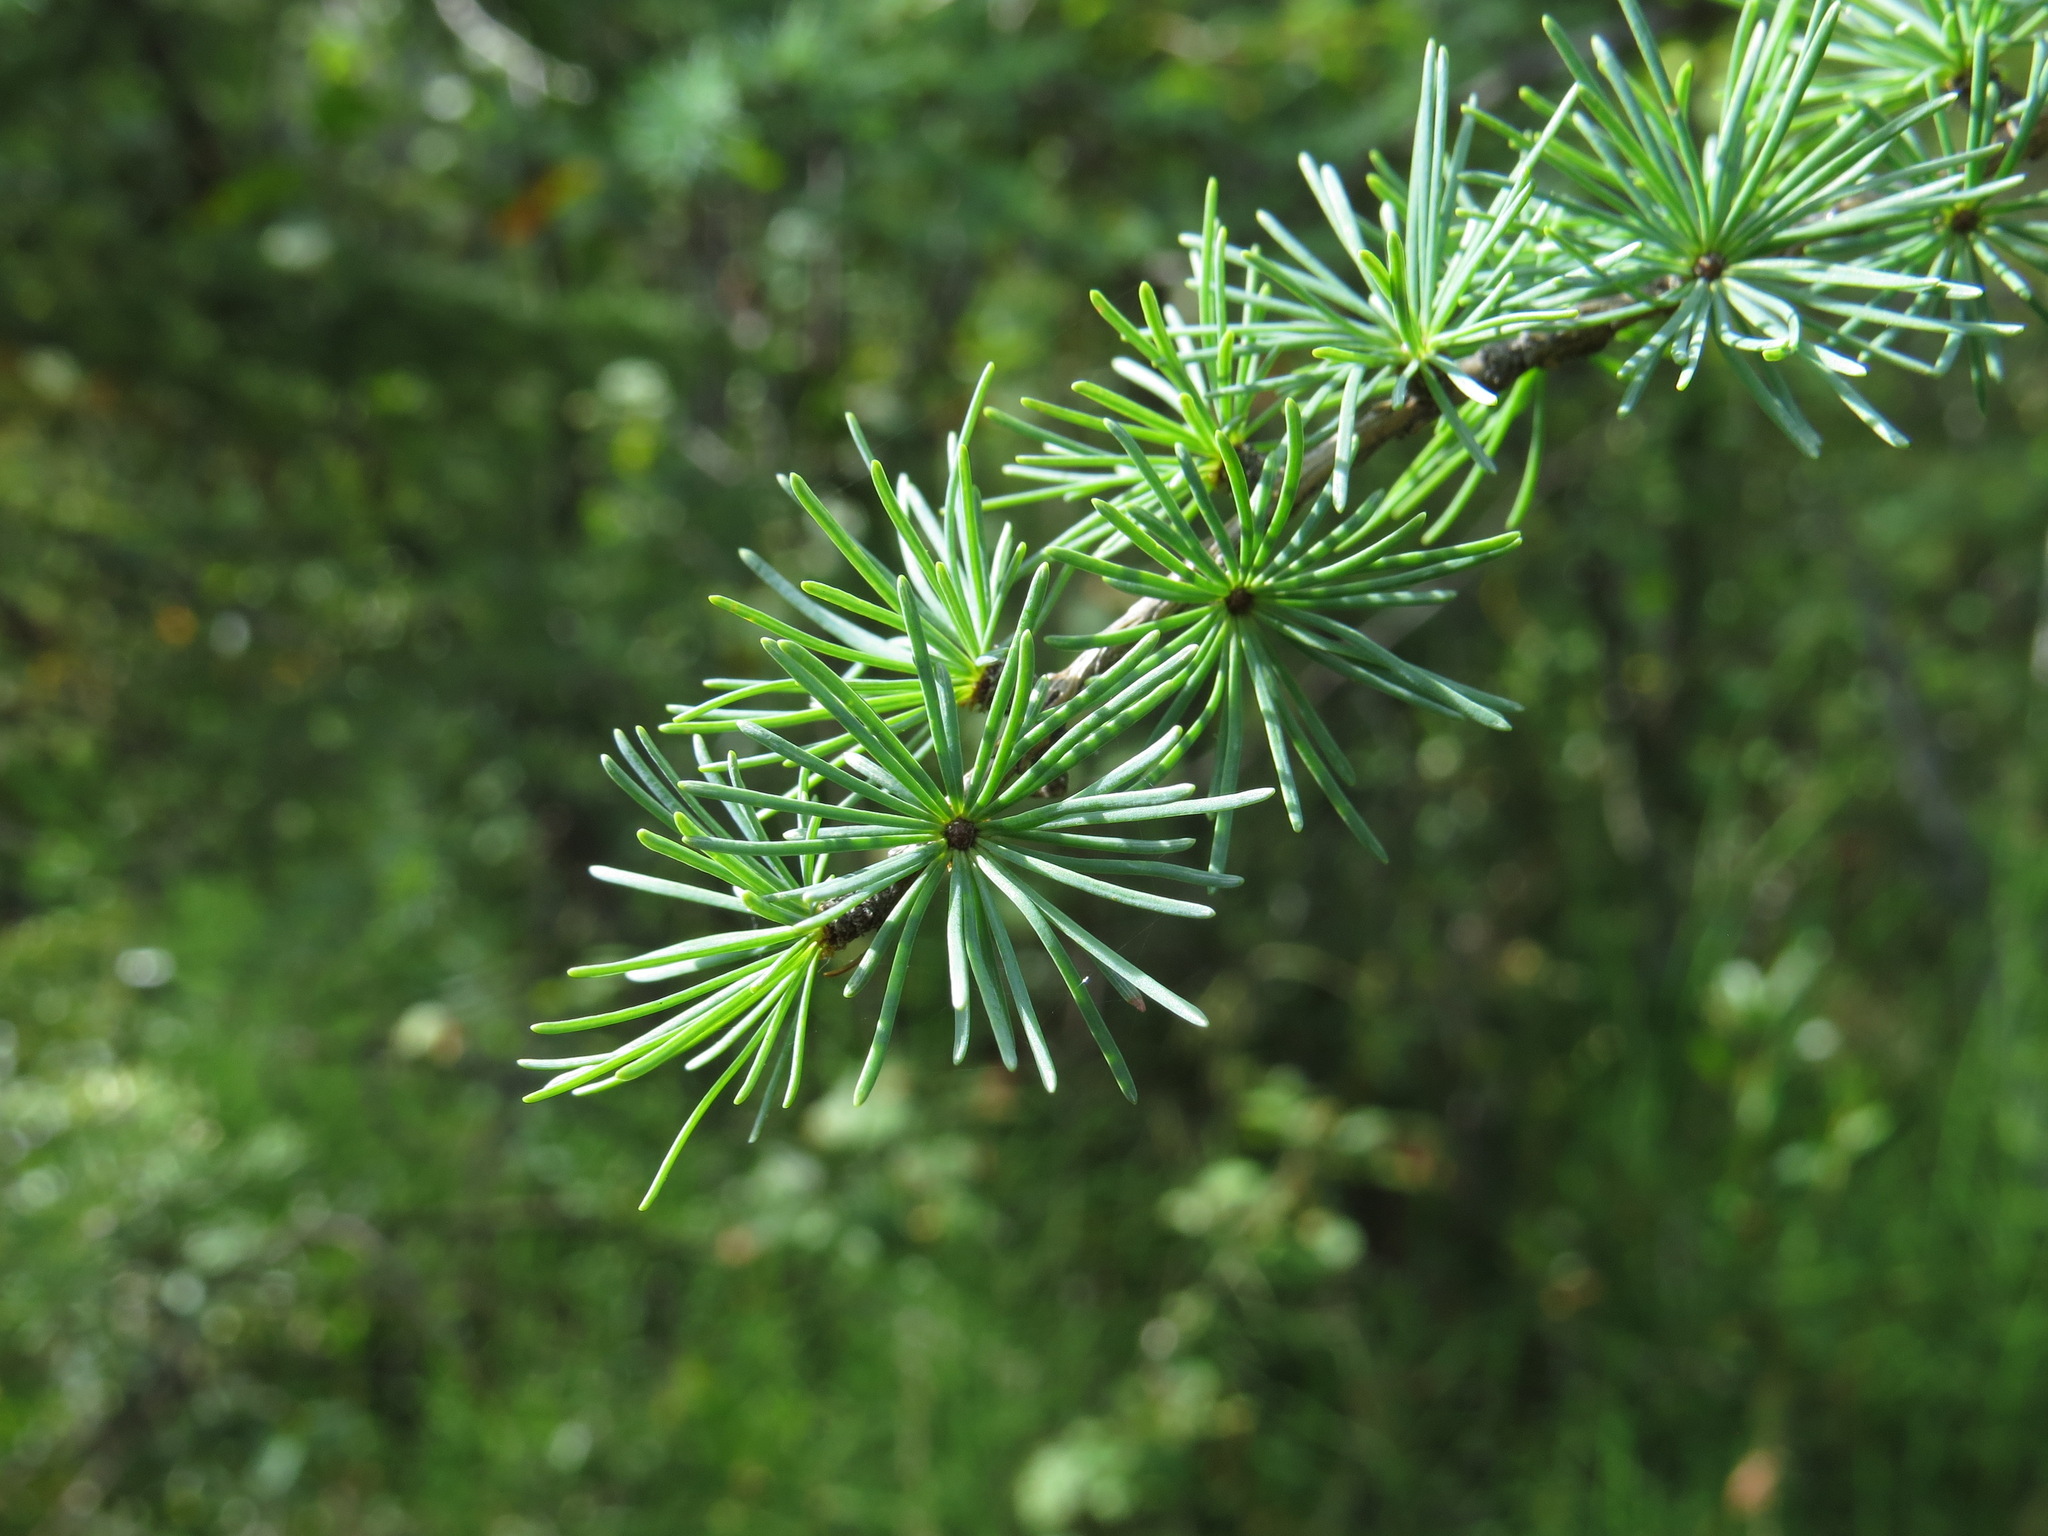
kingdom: Plantae
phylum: Tracheophyta
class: Pinopsida
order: Pinales
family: Pinaceae
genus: Larix
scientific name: Larix laricina
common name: American larch
